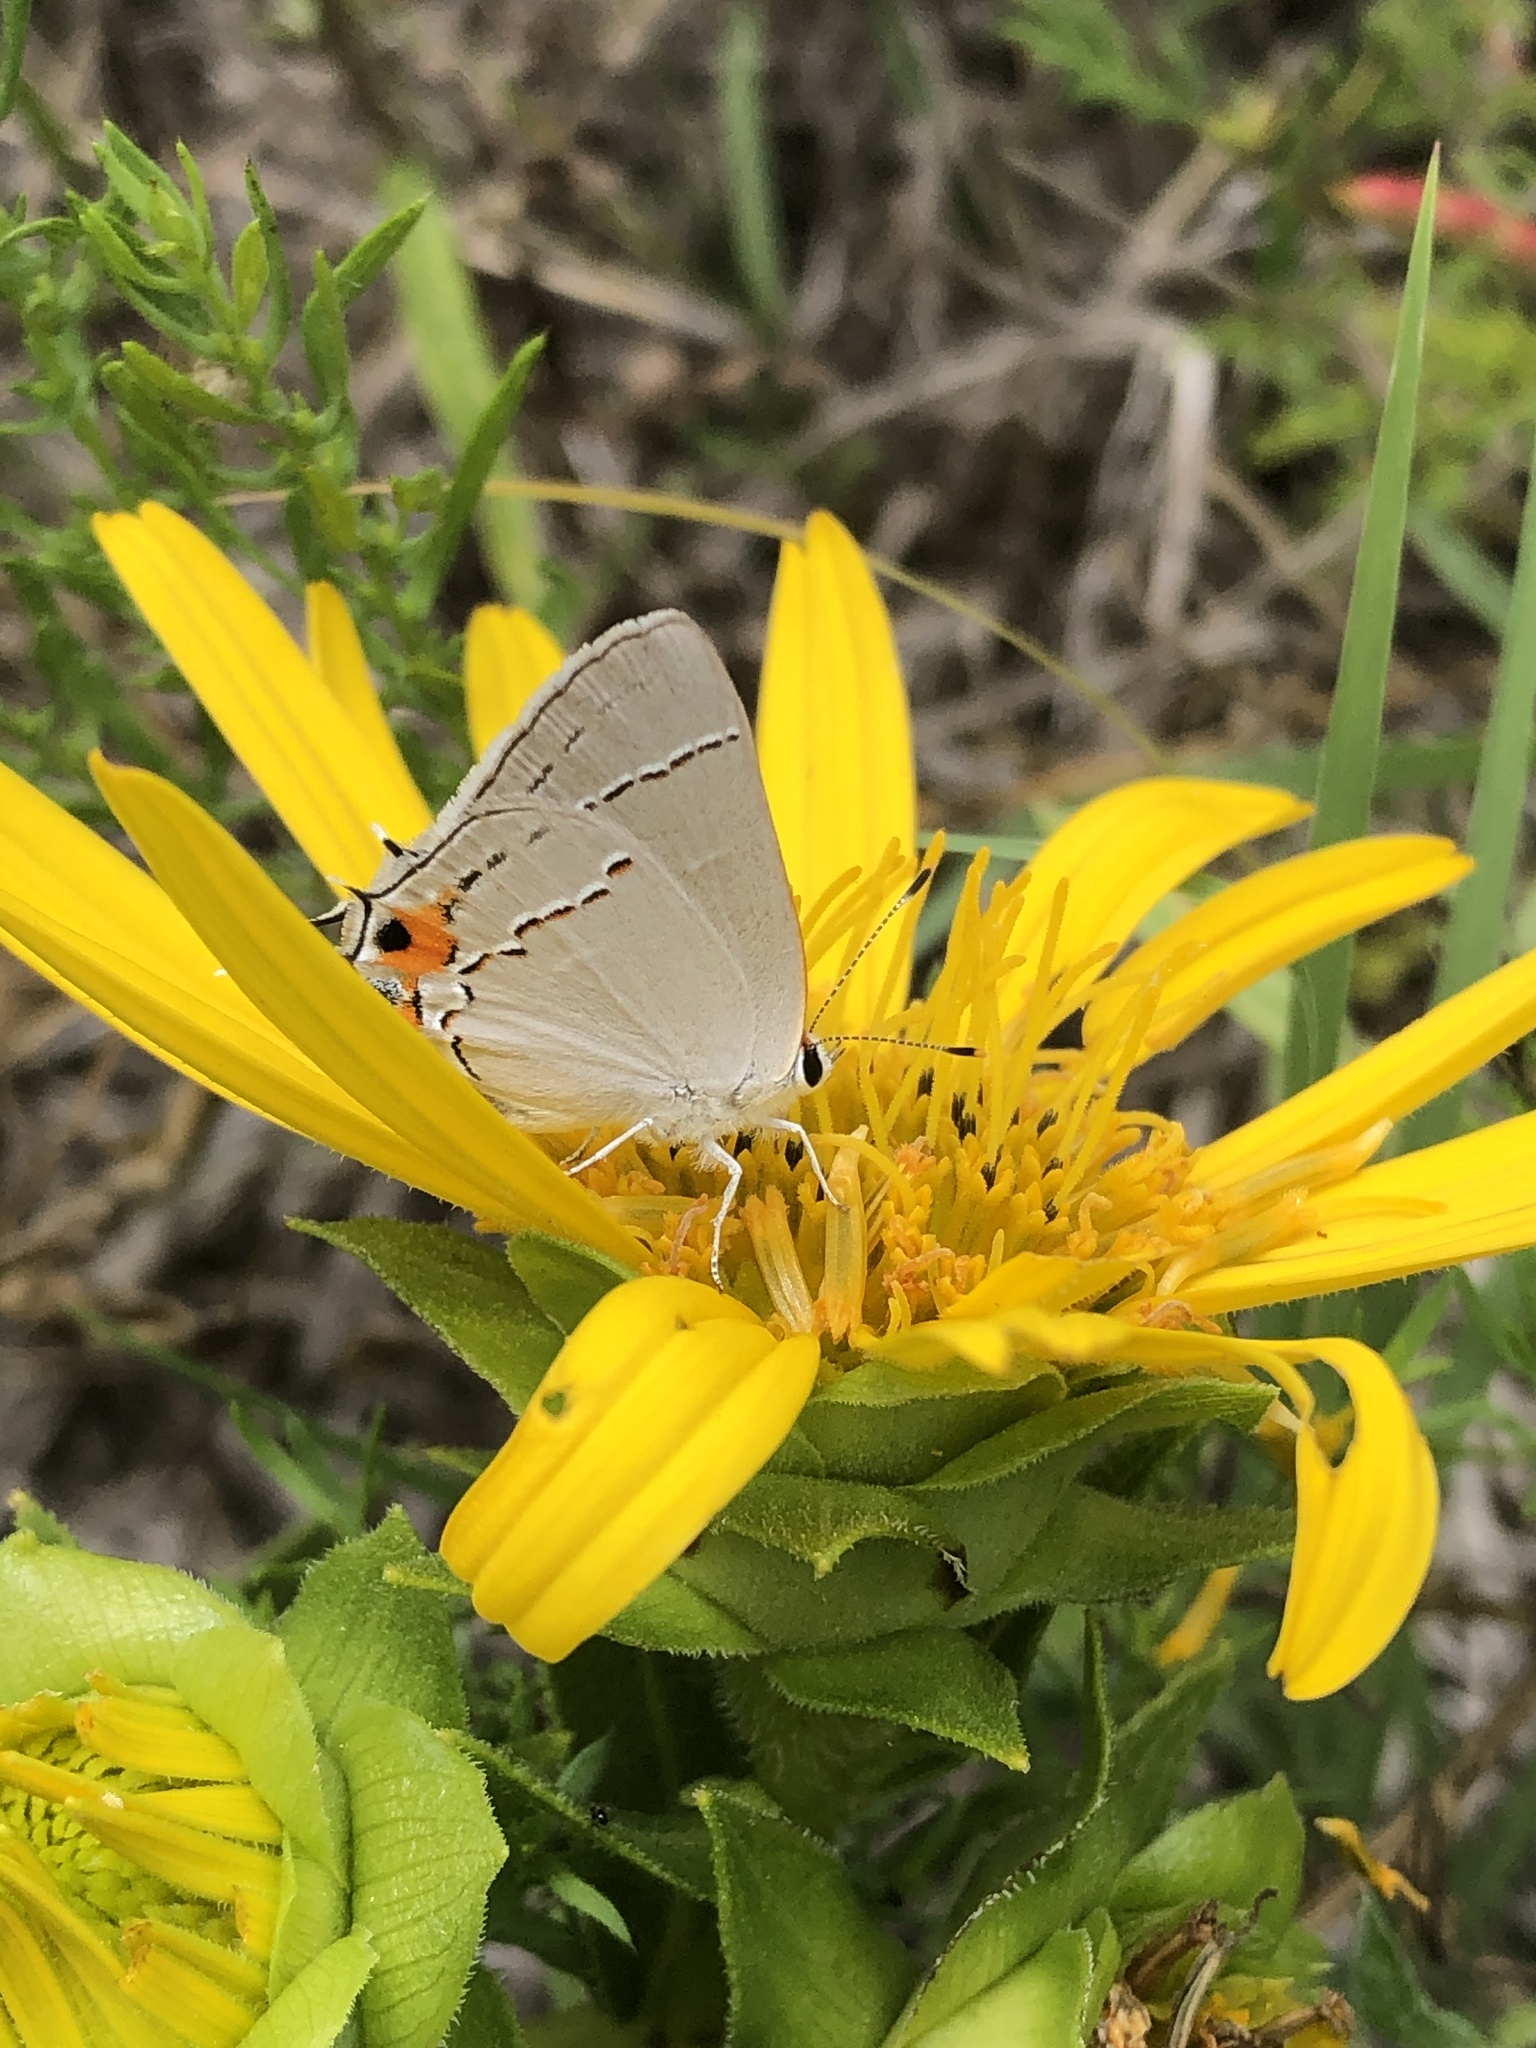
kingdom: Animalia
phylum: Arthropoda
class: Insecta
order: Lepidoptera
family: Lycaenidae
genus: Strymon
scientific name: Strymon melinus
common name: Gray hairstreak
